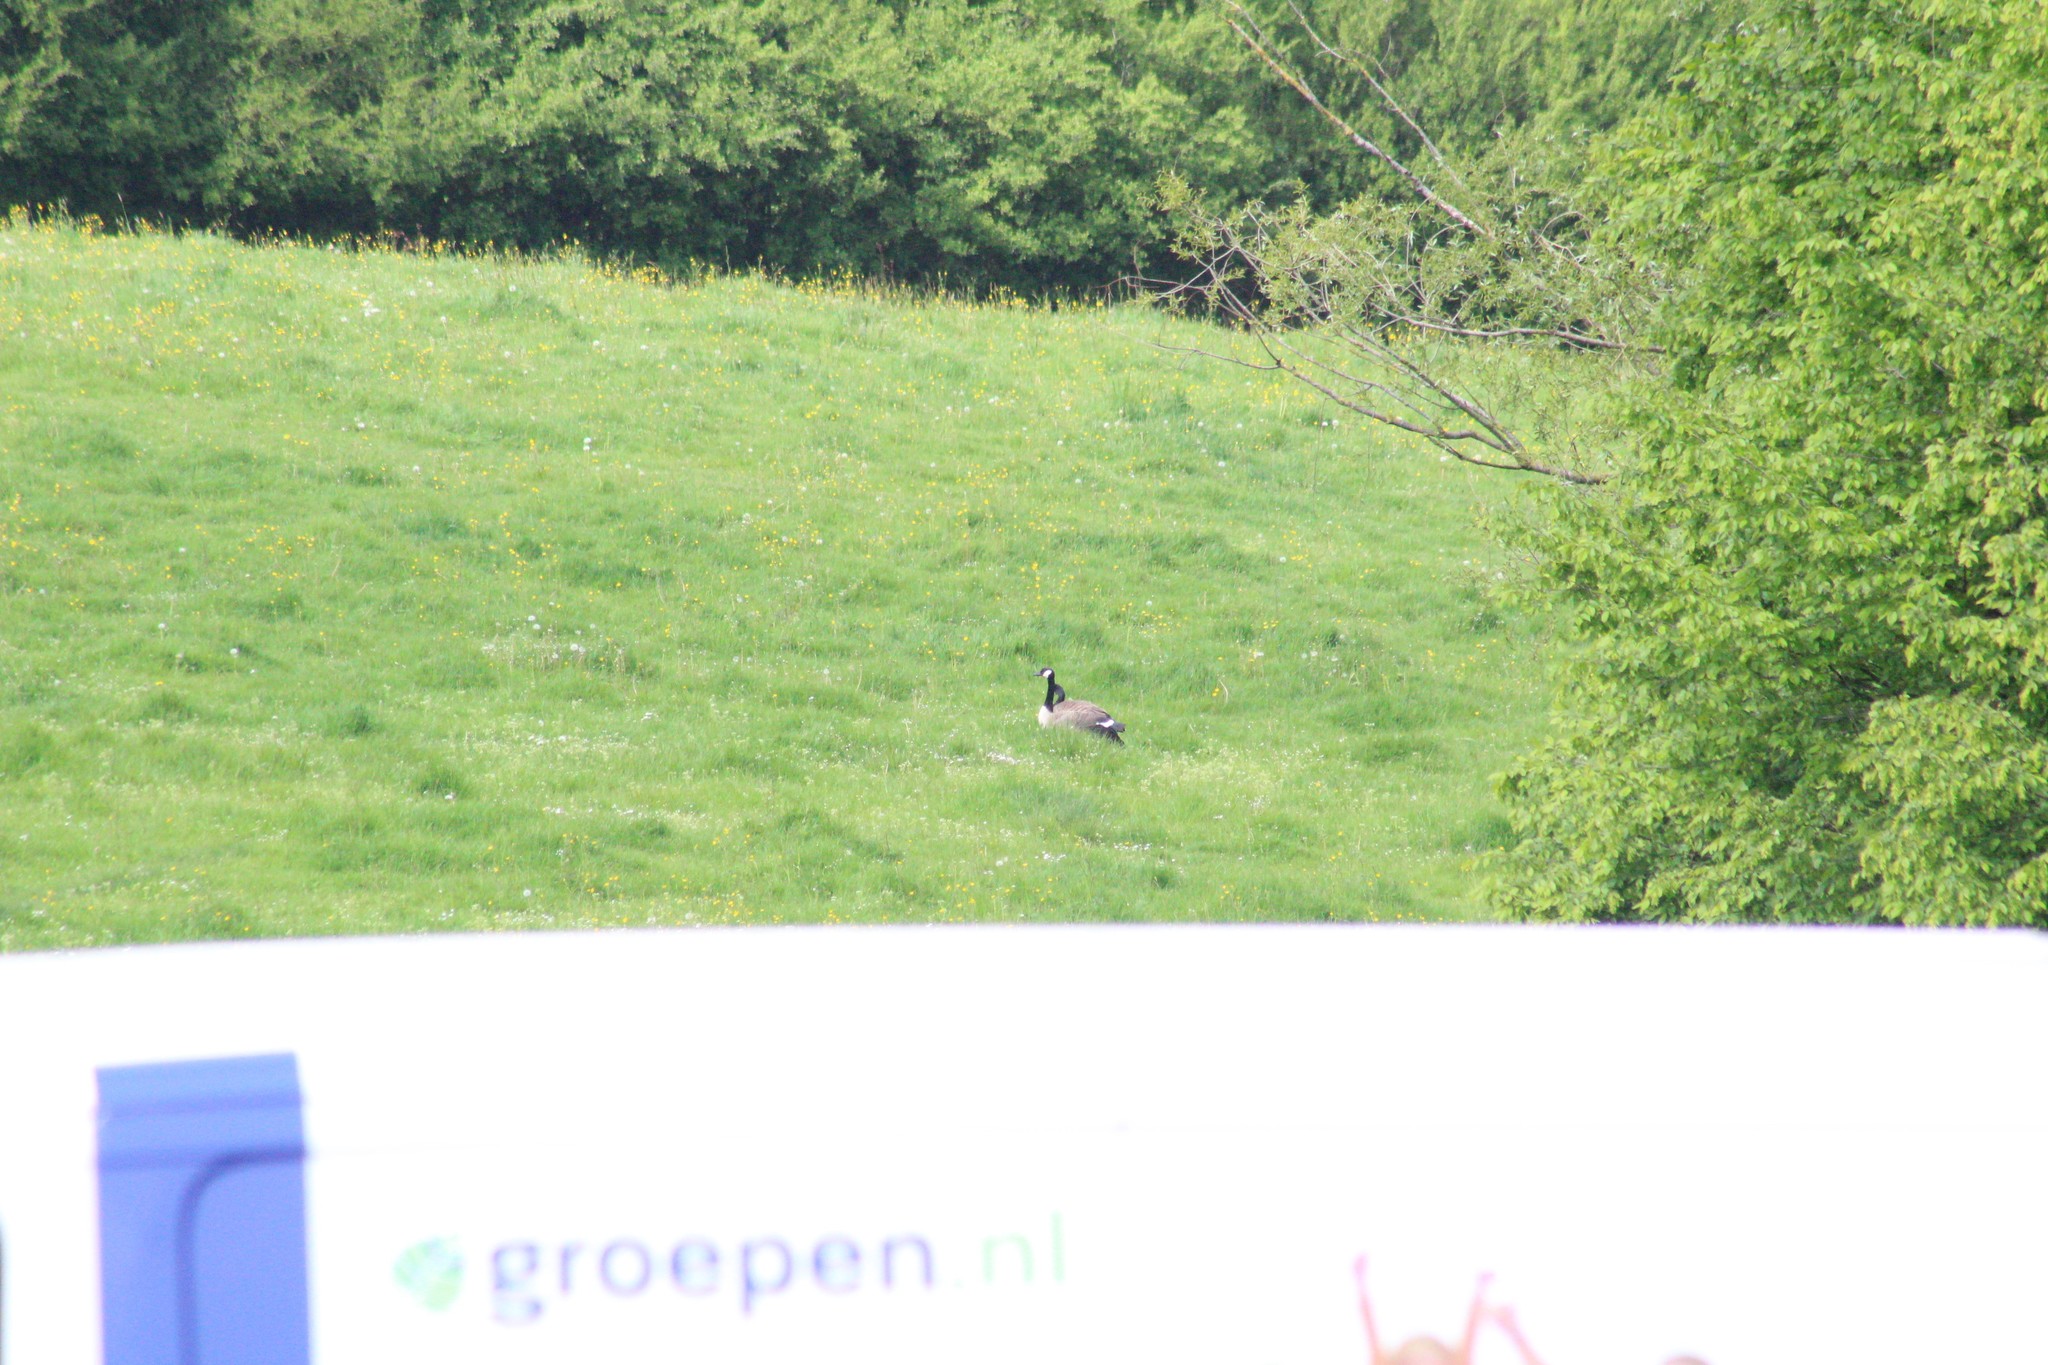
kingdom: Animalia
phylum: Chordata
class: Aves
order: Anseriformes
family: Anatidae
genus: Branta
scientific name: Branta canadensis
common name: Canada goose
